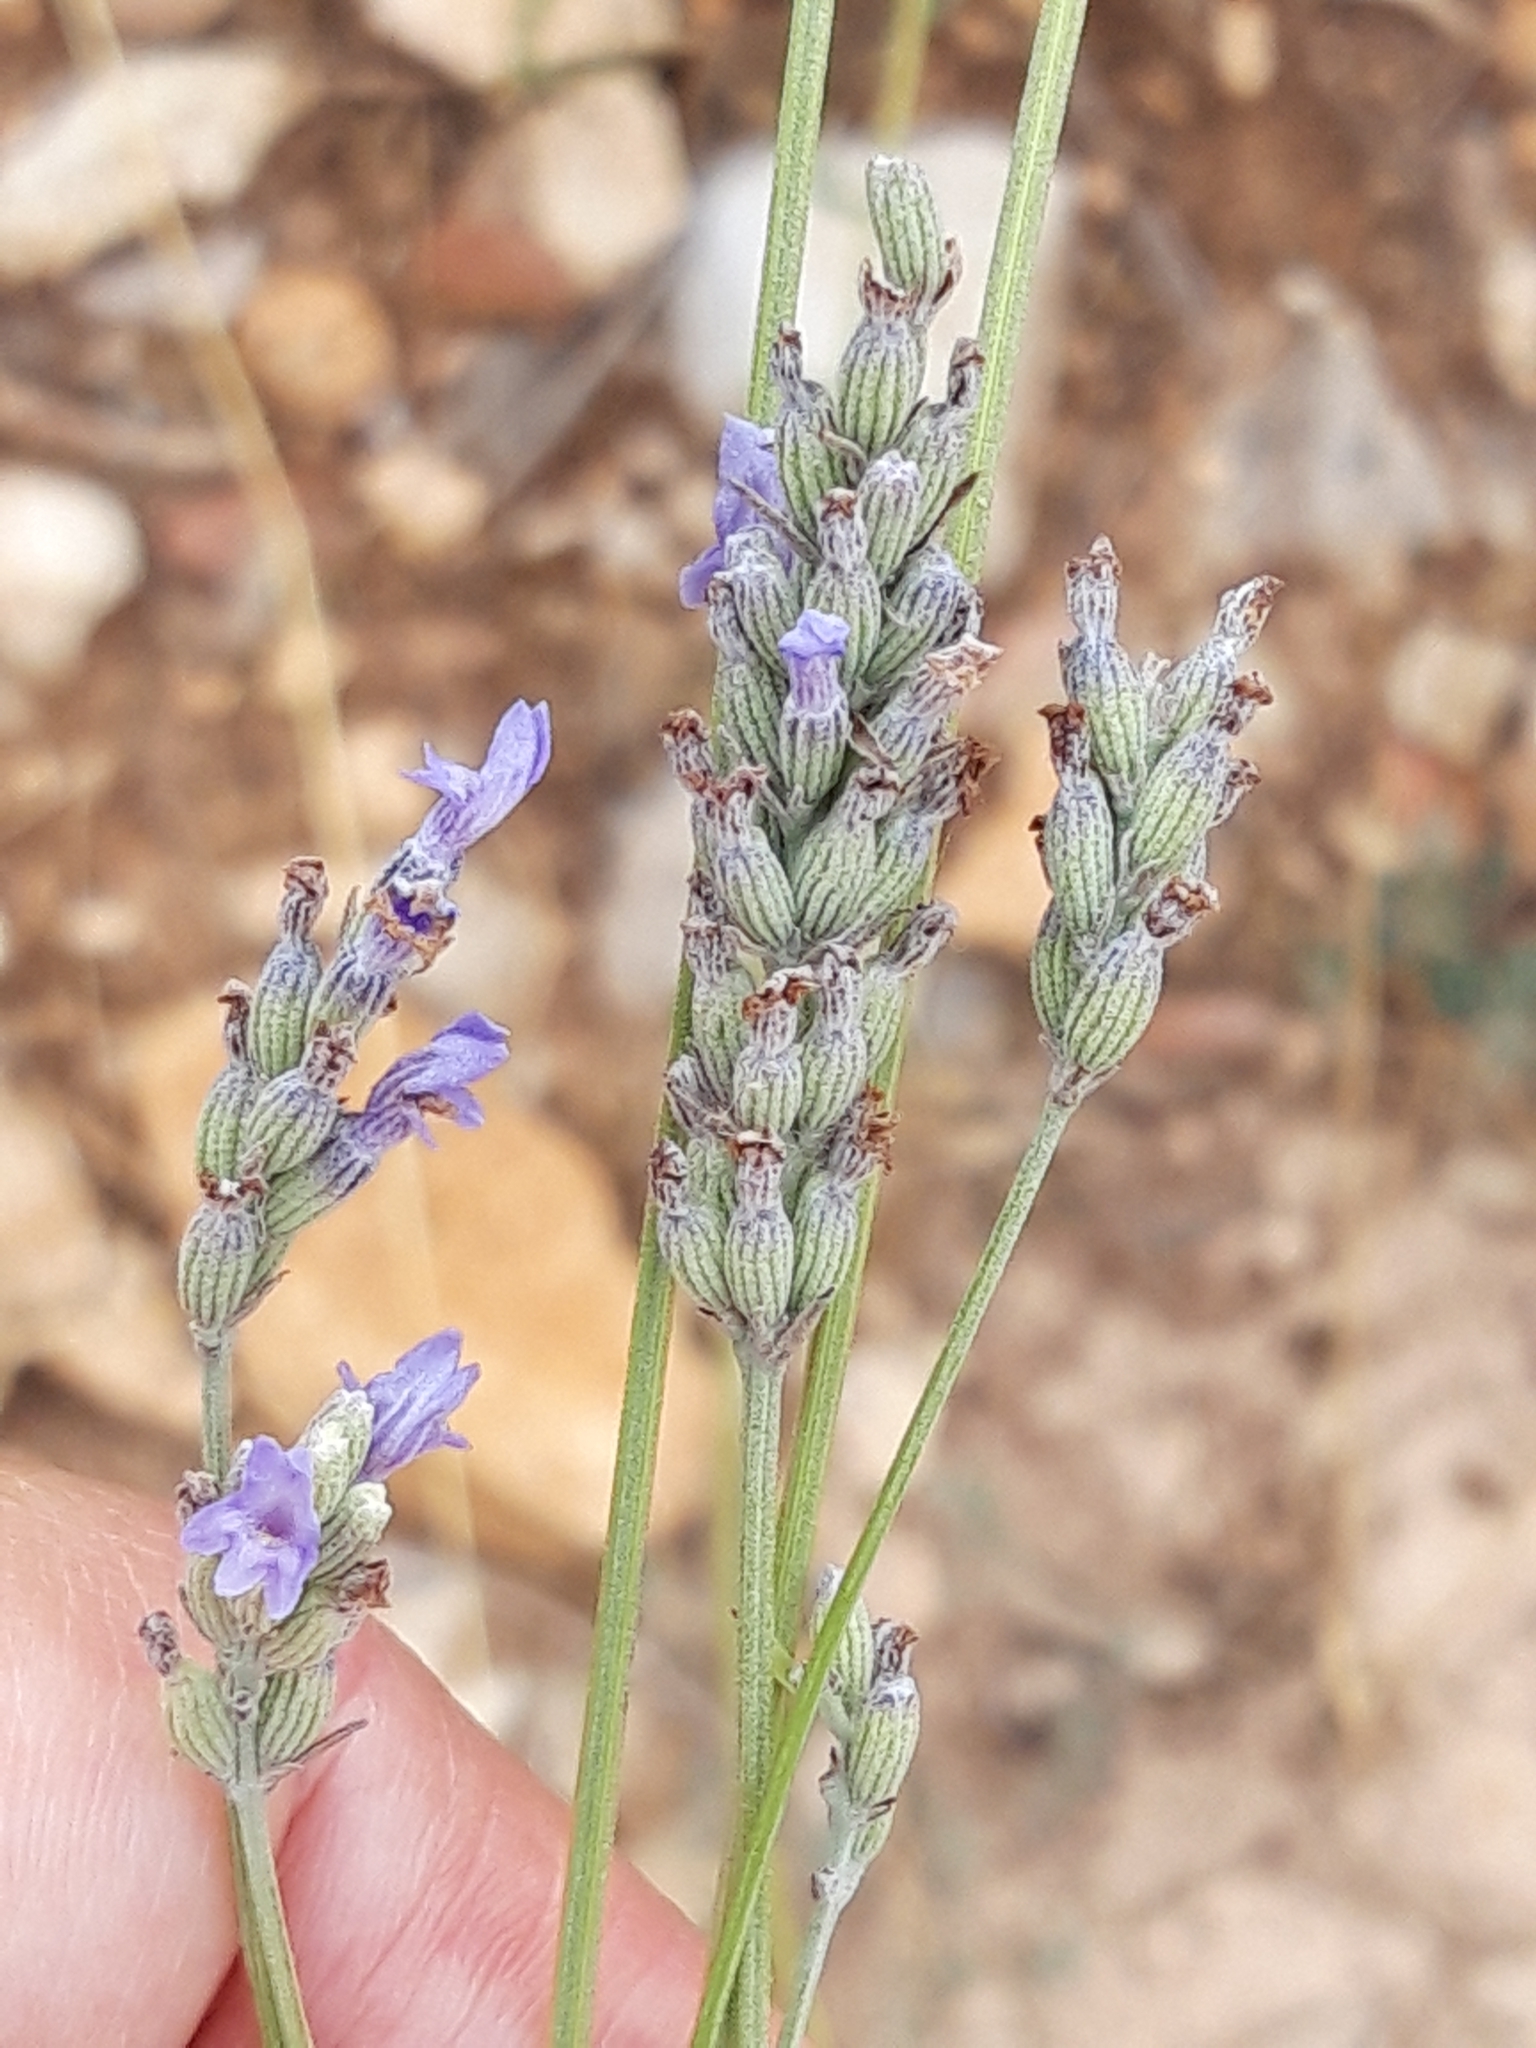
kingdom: Plantae
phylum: Tracheophyta
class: Magnoliopsida
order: Lamiales
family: Lamiaceae
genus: Lavandula
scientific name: Lavandula latifolia
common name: Spike lavendar
